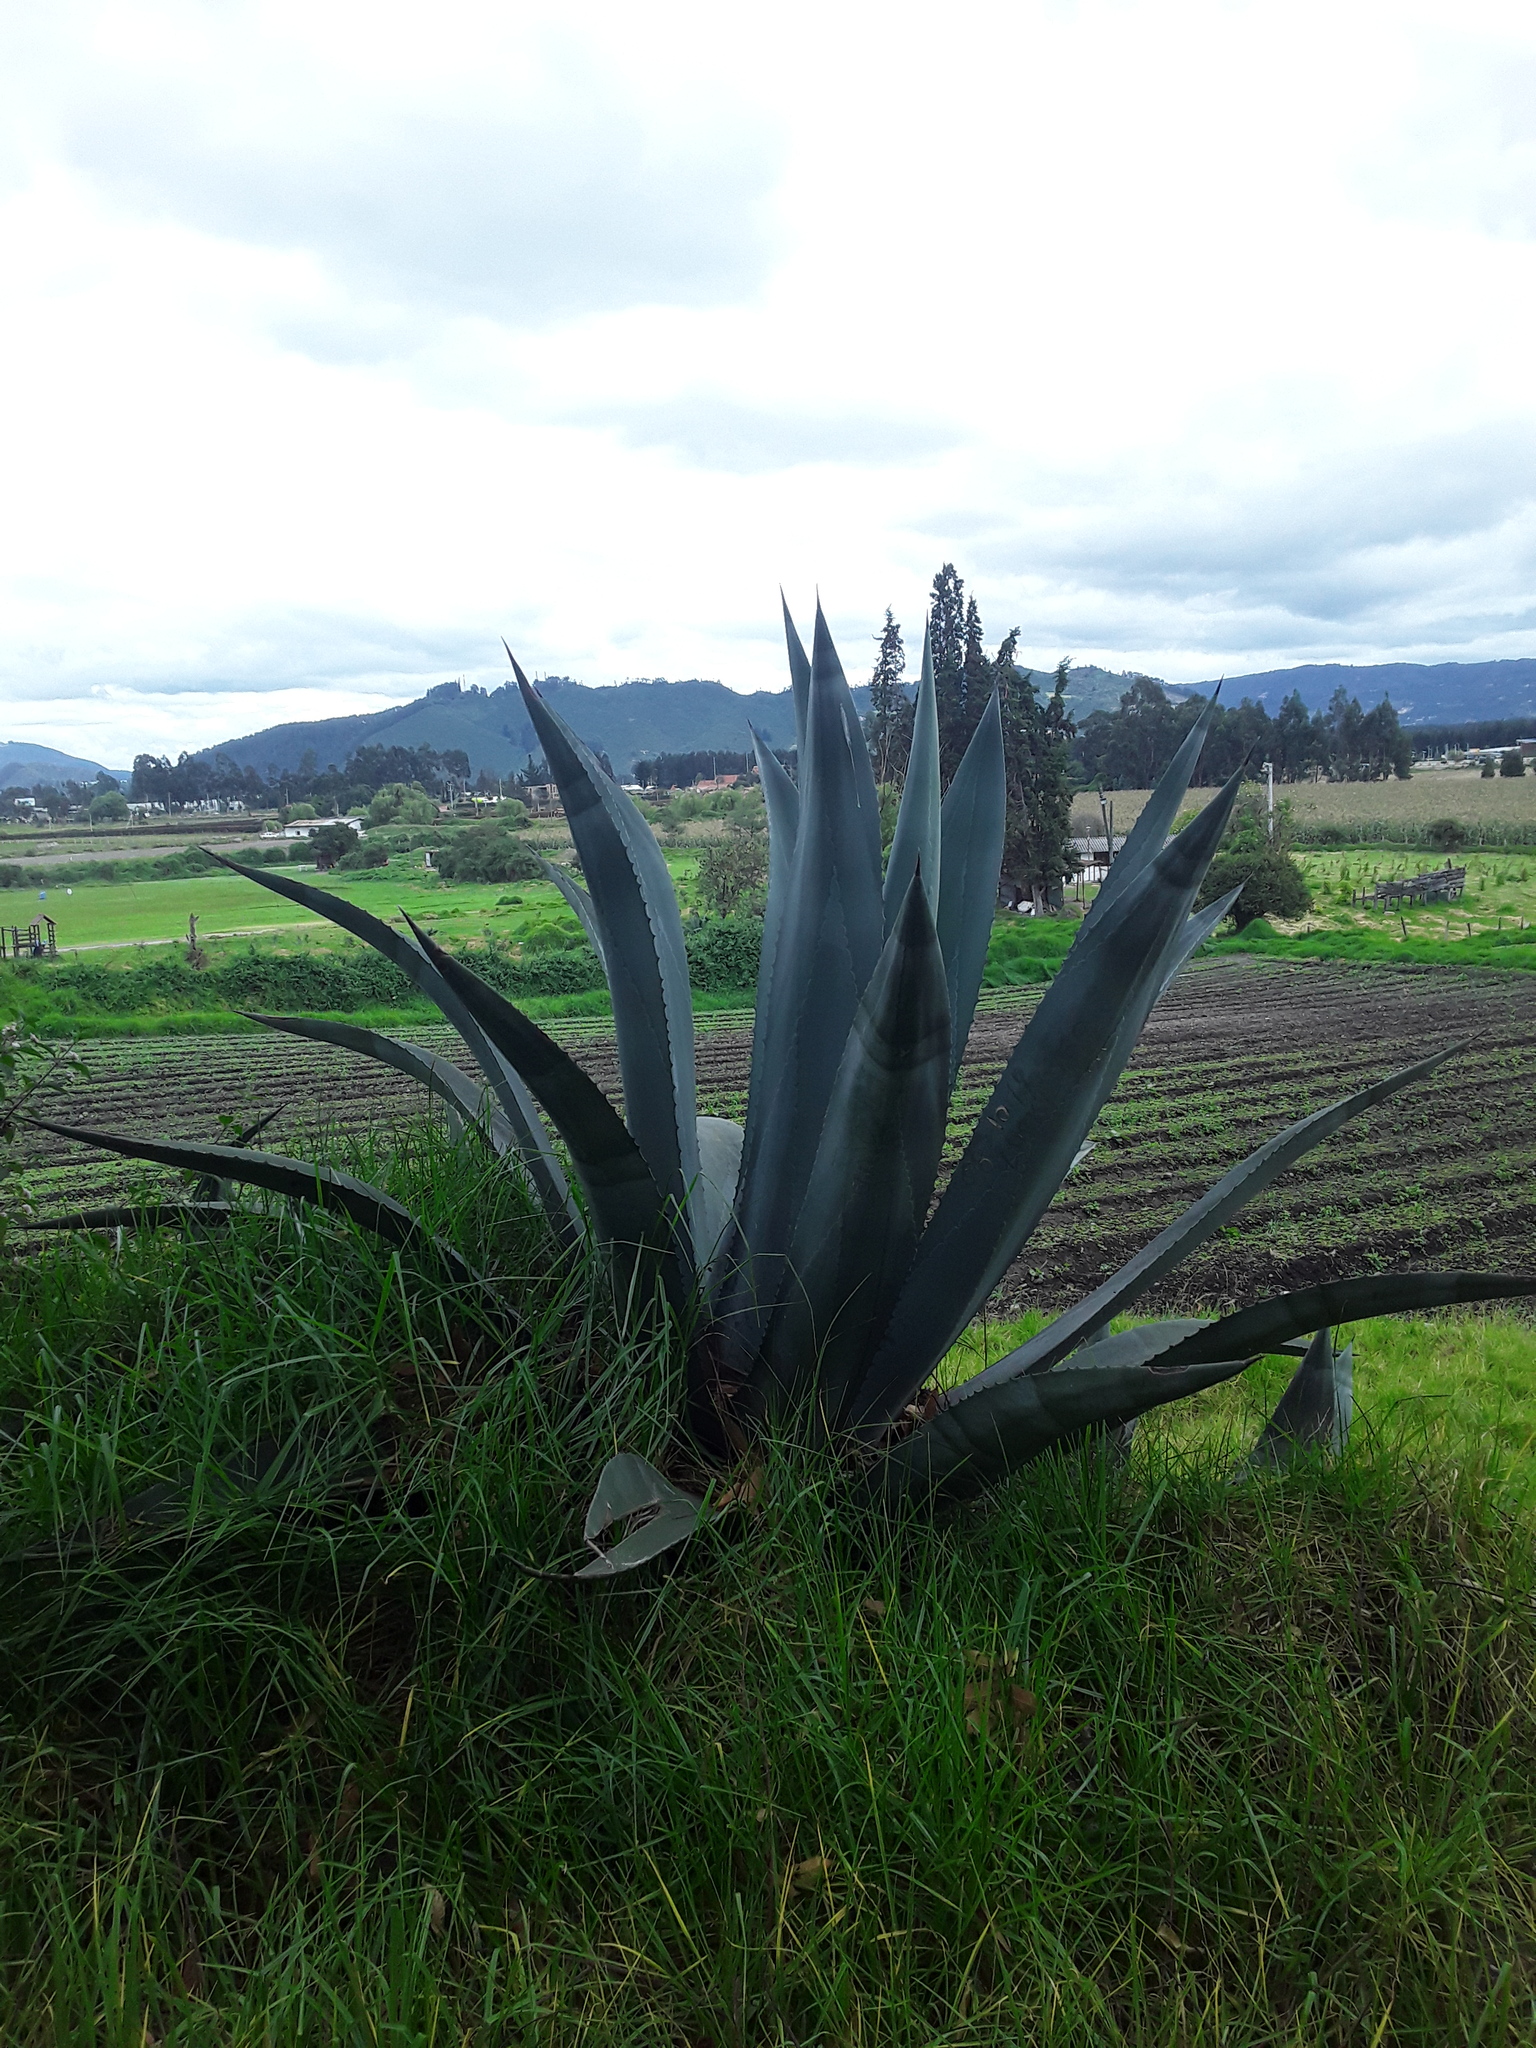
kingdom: Plantae
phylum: Tracheophyta
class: Liliopsida
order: Asparagales
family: Asparagaceae
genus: Agave
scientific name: Agave americana
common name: Centuryplant
